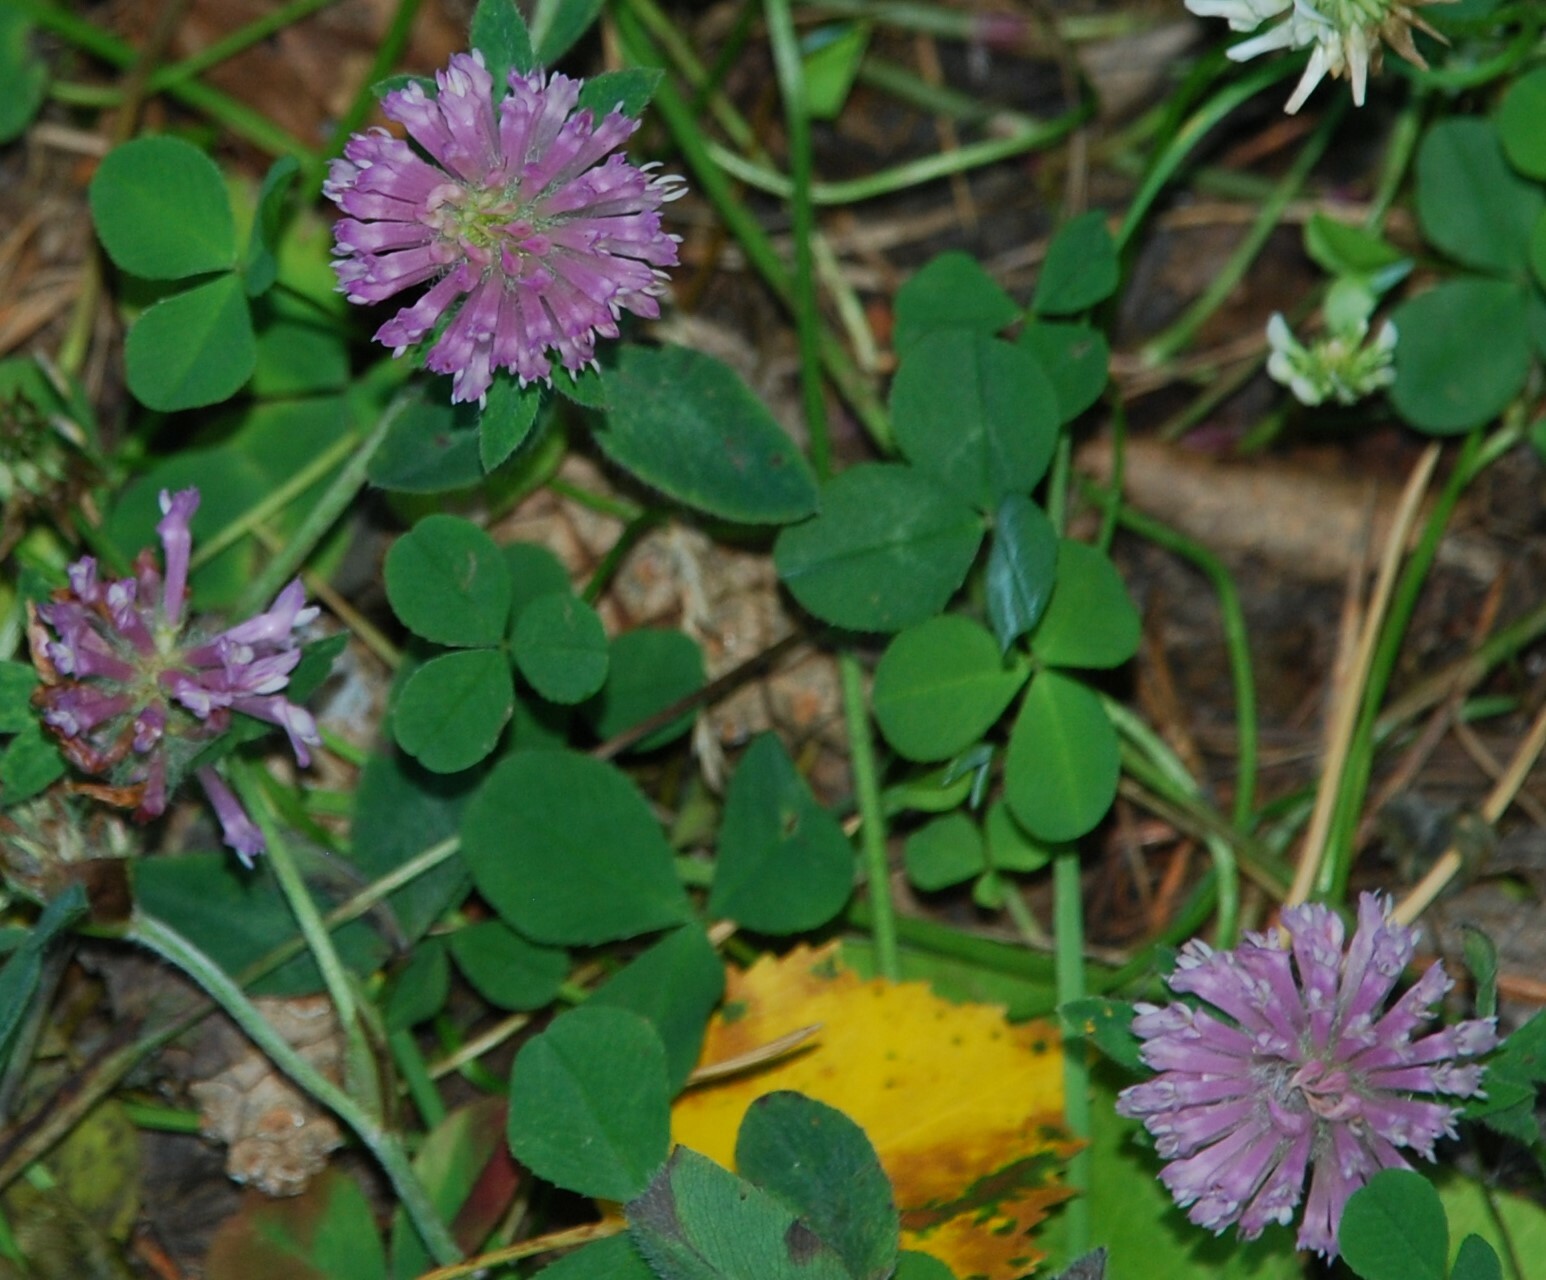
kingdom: Plantae
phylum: Tracheophyta
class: Magnoliopsida
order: Fabales
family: Fabaceae
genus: Trifolium
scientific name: Trifolium pratense
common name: Red clover
